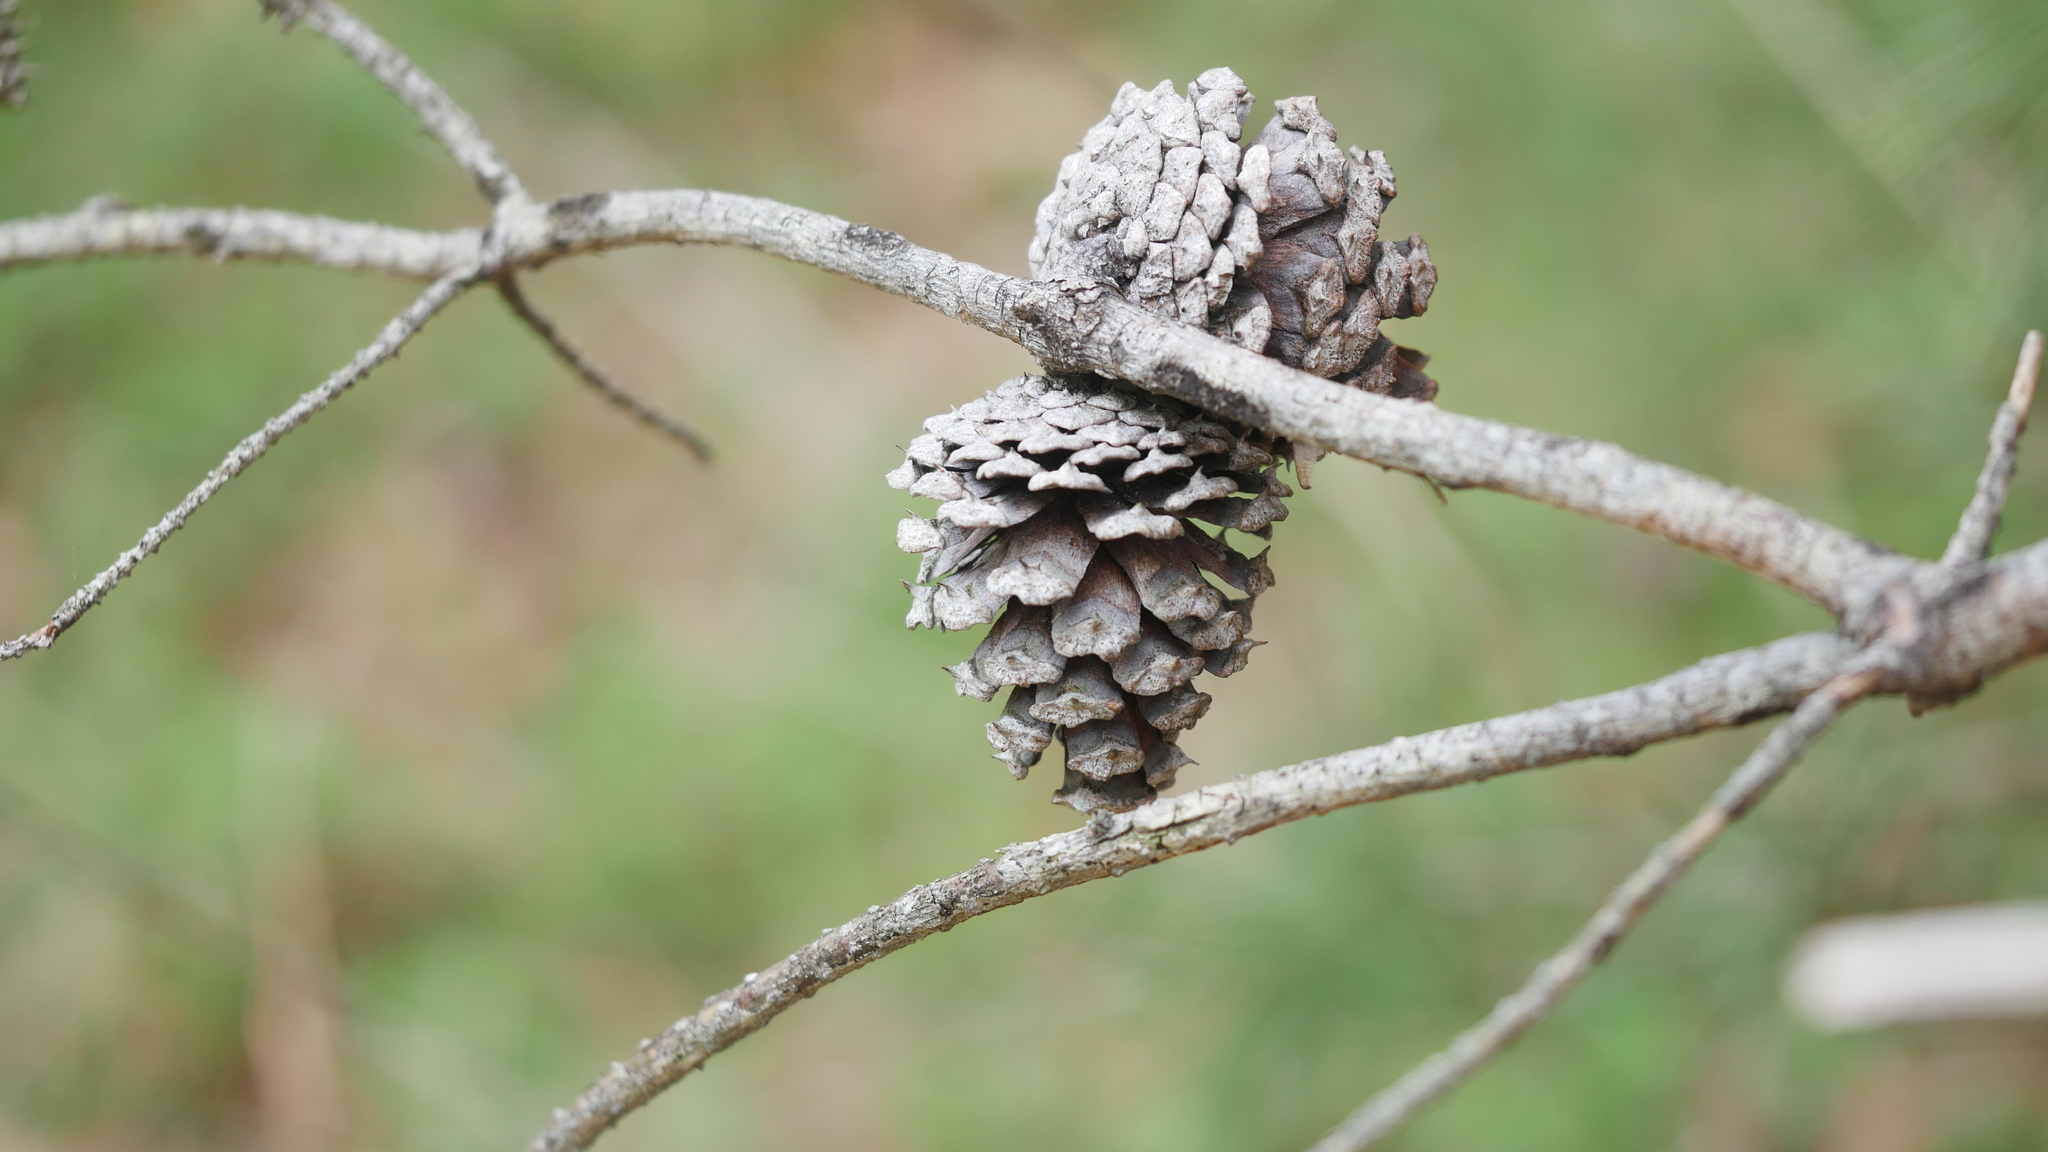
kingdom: Plantae
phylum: Tracheophyta
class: Pinopsida
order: Pinales
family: Pinaceae
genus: Pinus
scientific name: Pinus virginiana
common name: Scrub pine
